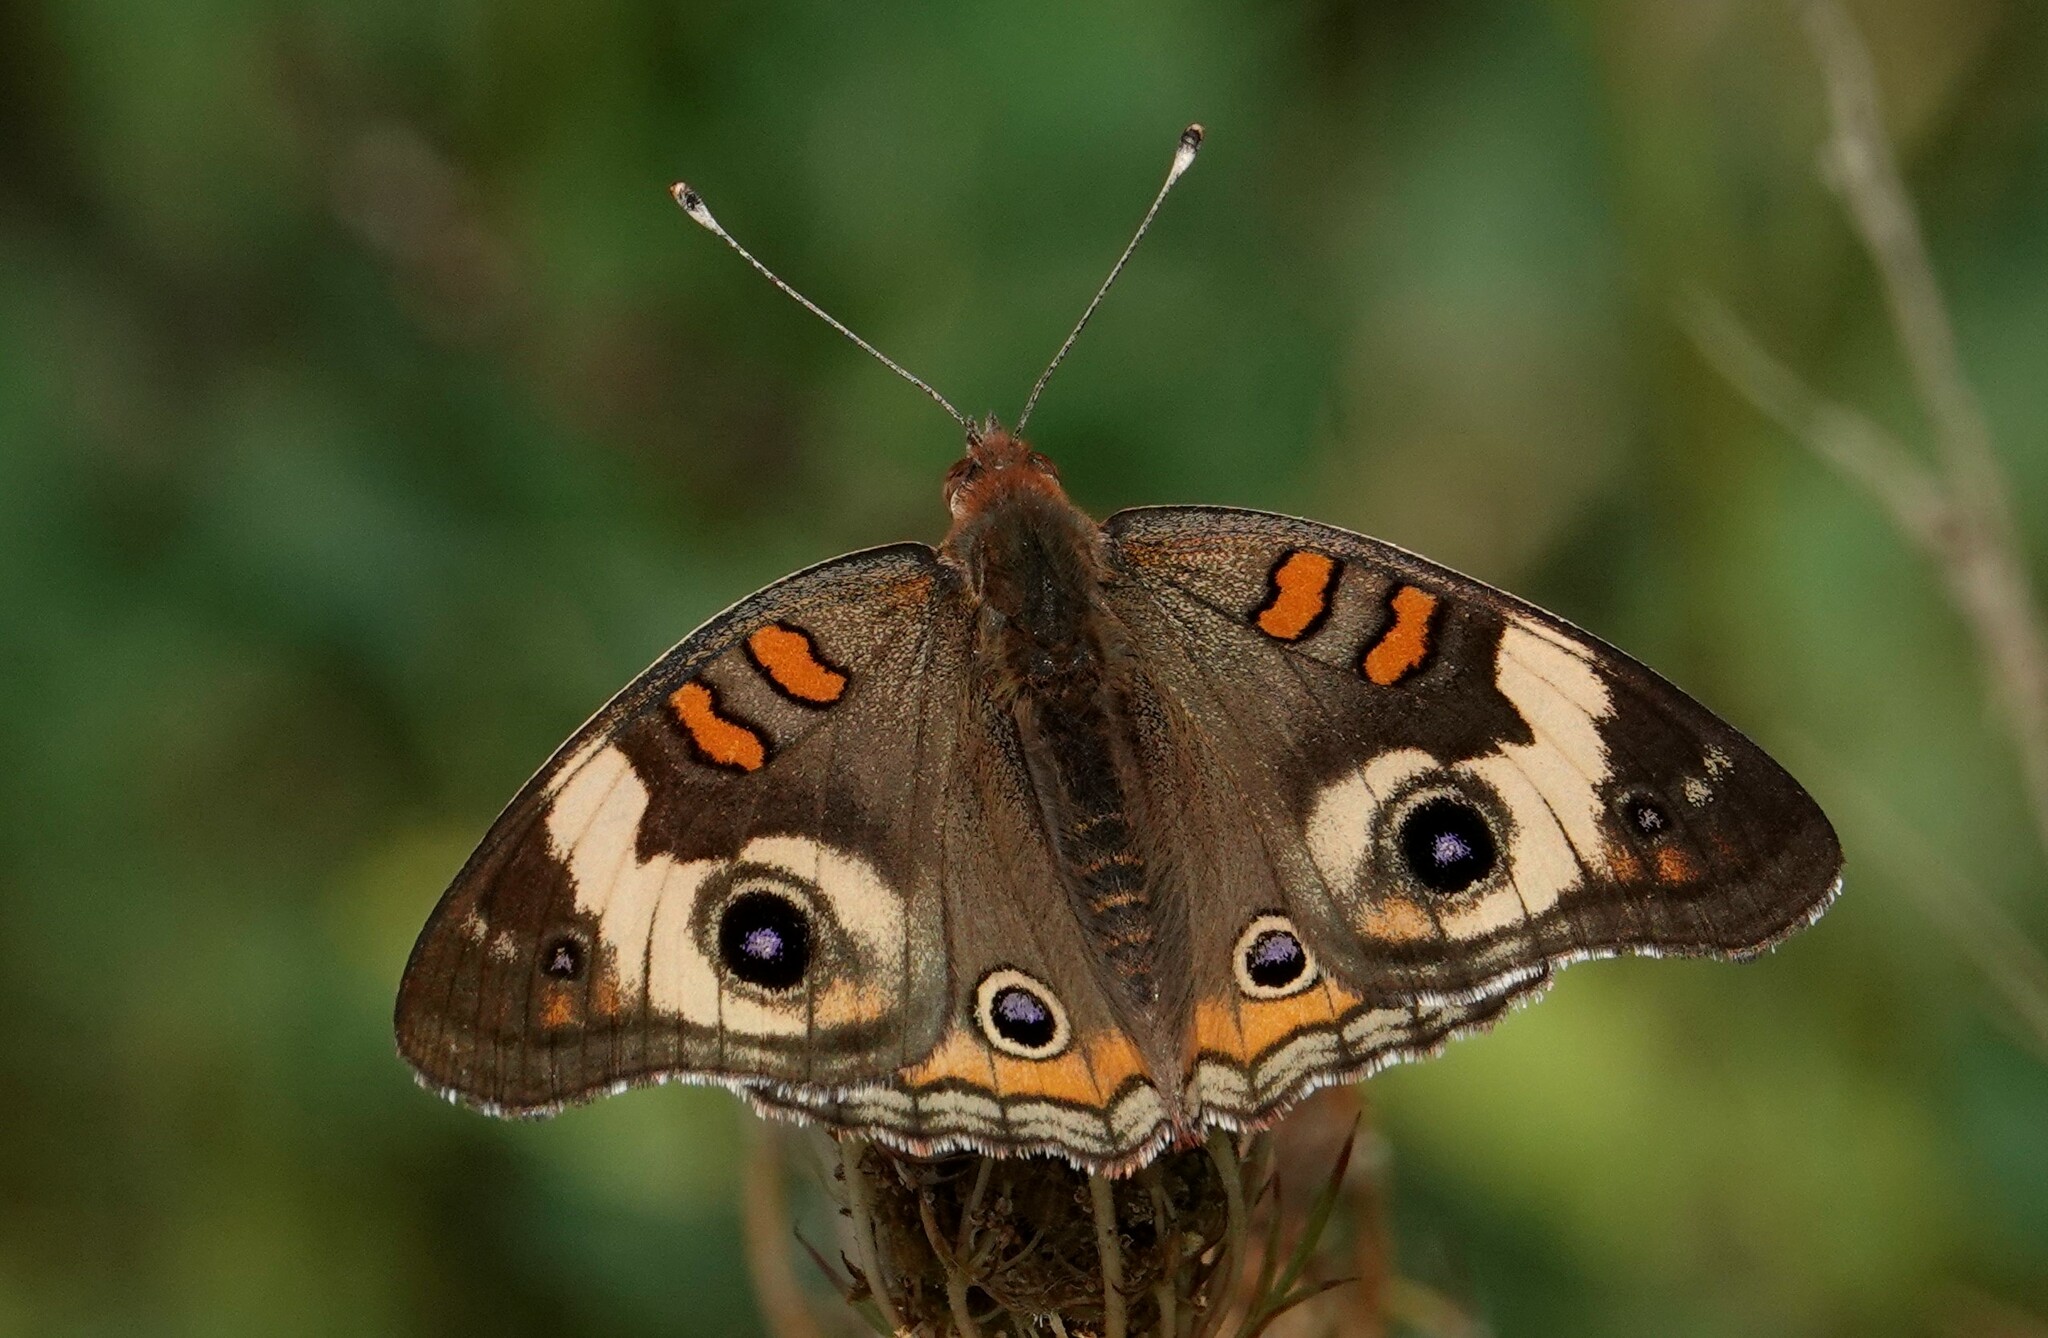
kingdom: Animalia
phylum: Arthropoda
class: Insecta
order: Lepidoptera
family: Nymphalidae
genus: Junonia
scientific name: Junonia coenia
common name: Common buckeye
